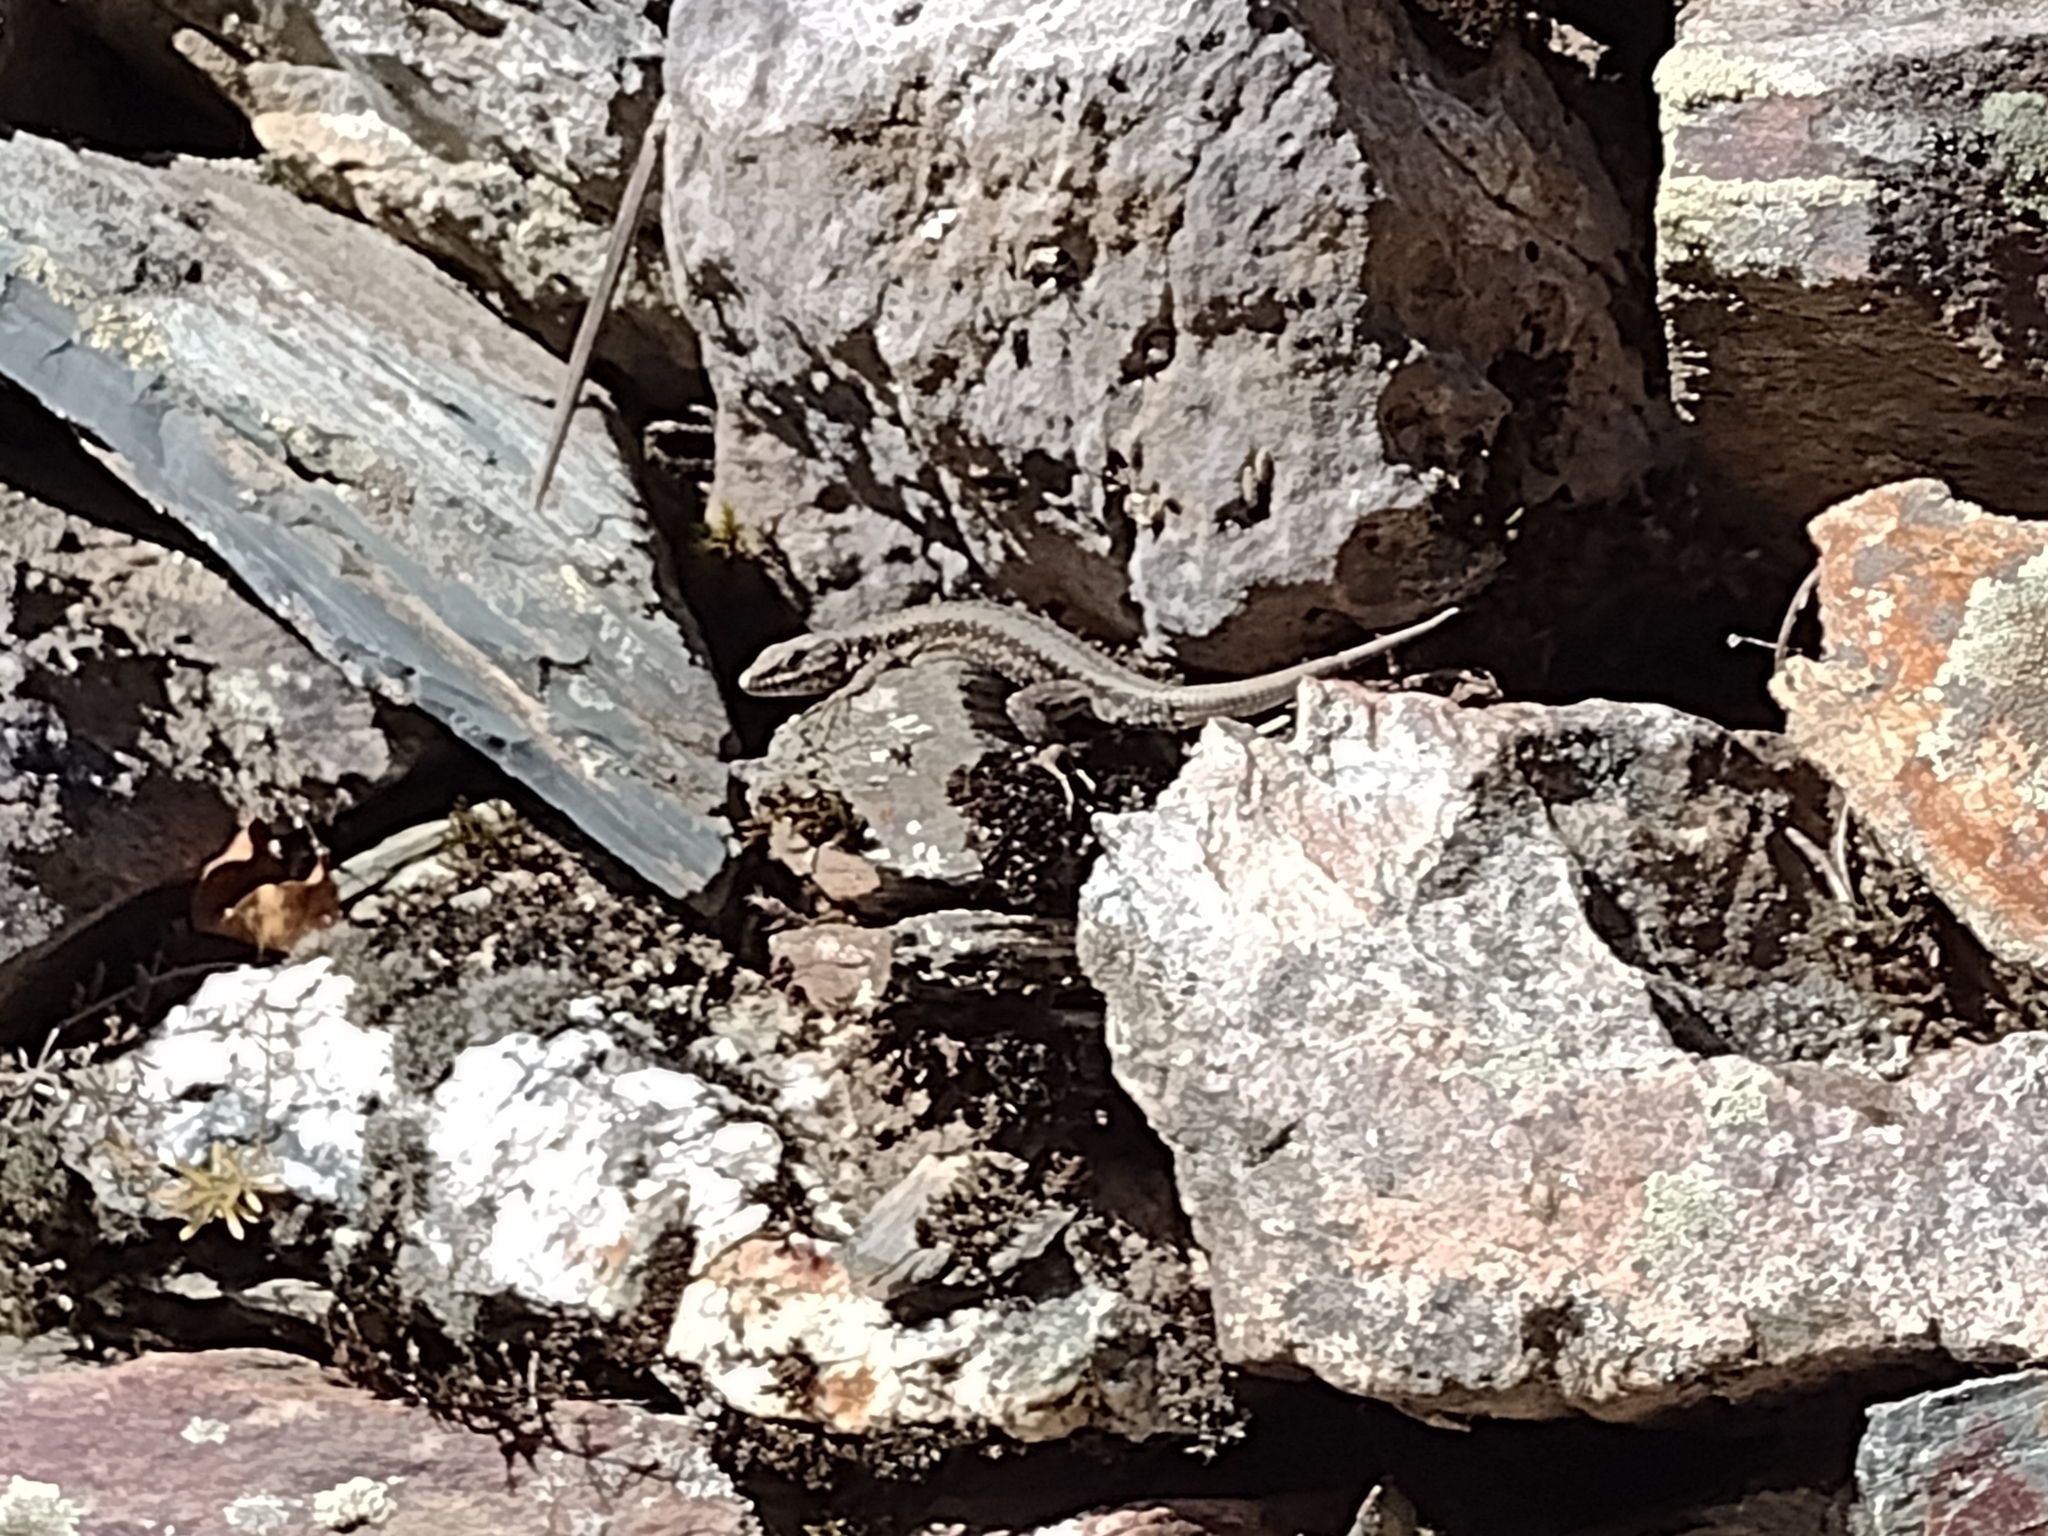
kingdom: Animalia
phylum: Chordata
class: Squamata
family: Lacertidae
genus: Podarcis
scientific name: Podarcis muralis
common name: Common wall lizard
